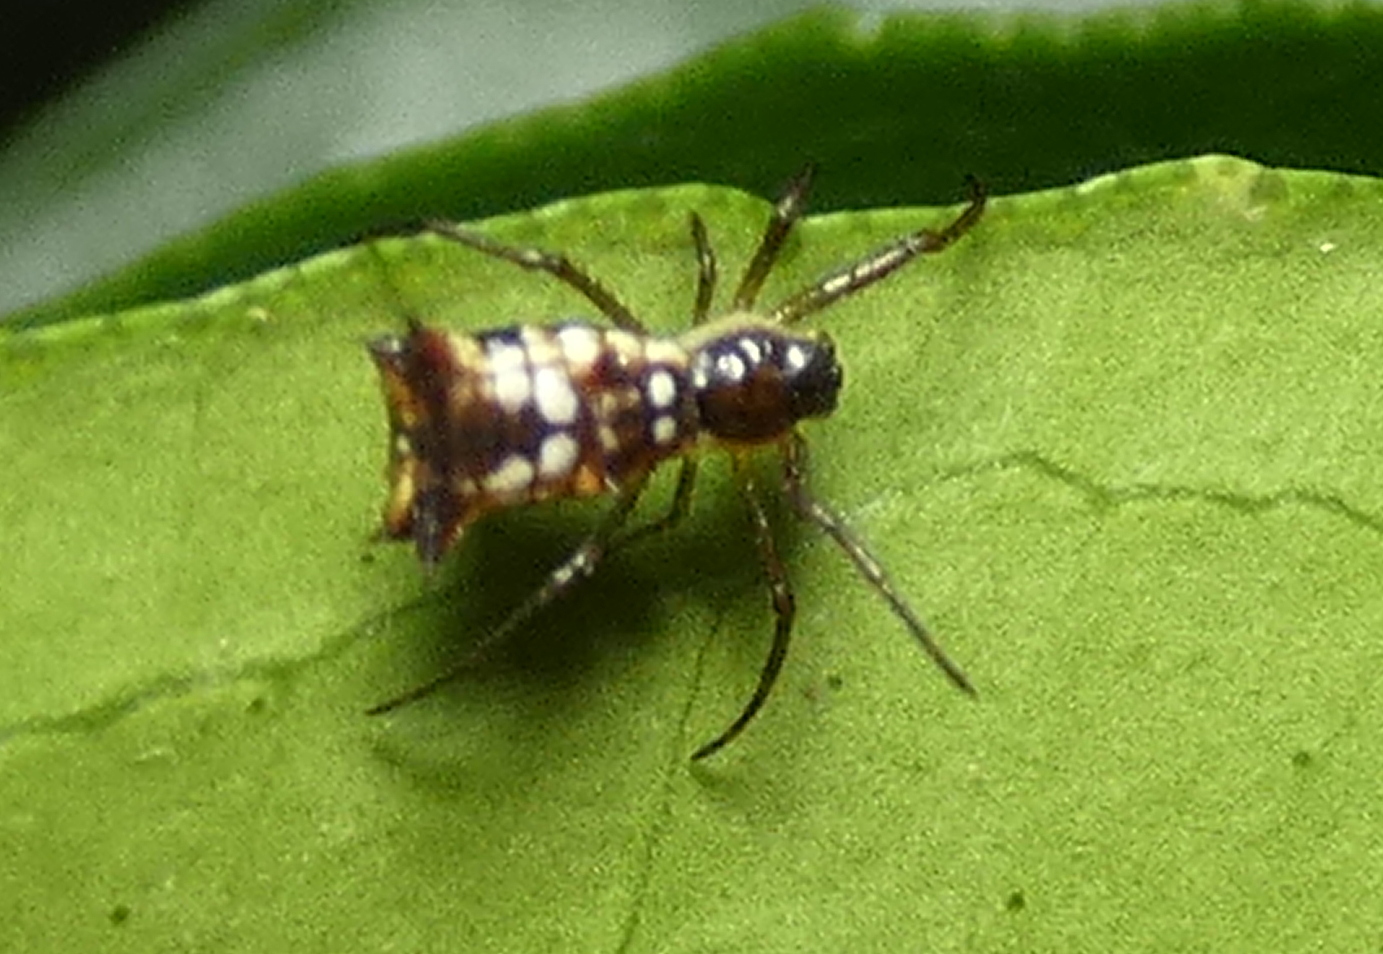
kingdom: Animalia
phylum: Arthropoda
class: Arachnida
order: Araneae
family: Araneidae
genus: Micrathena
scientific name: Micrathena fissispina
